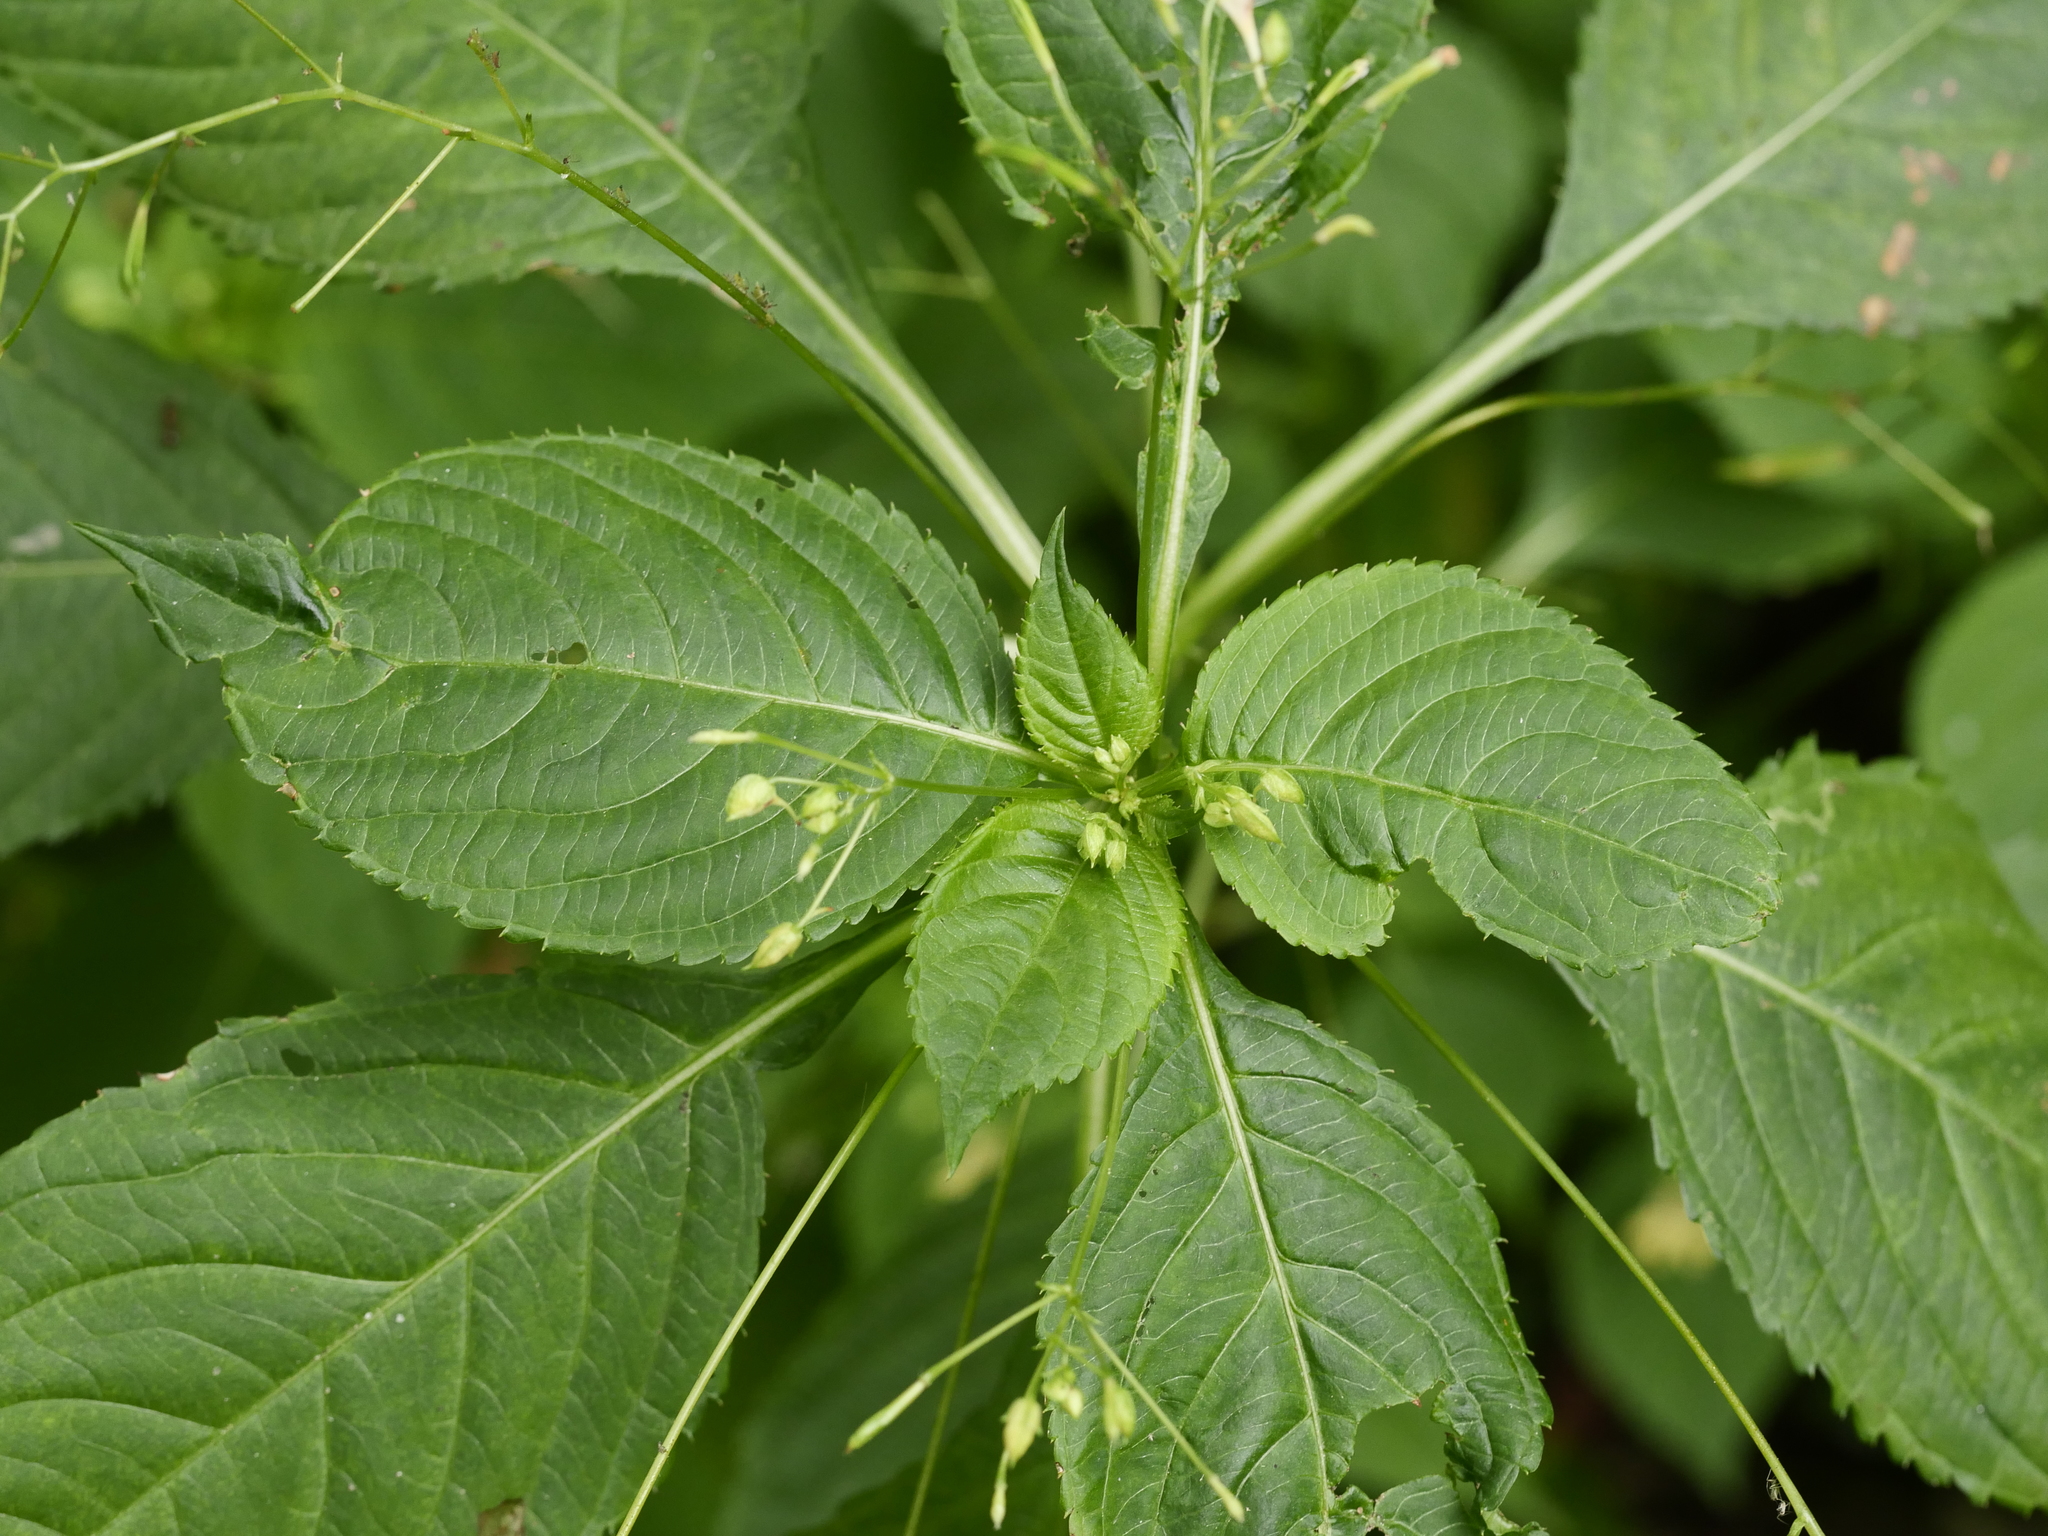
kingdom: Plantae
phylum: Tracheophyta
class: Magnoliopsida
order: Ericales
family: Balsaminaceae
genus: Impatiens
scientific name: Impatiens parviflora
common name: Small balsam
